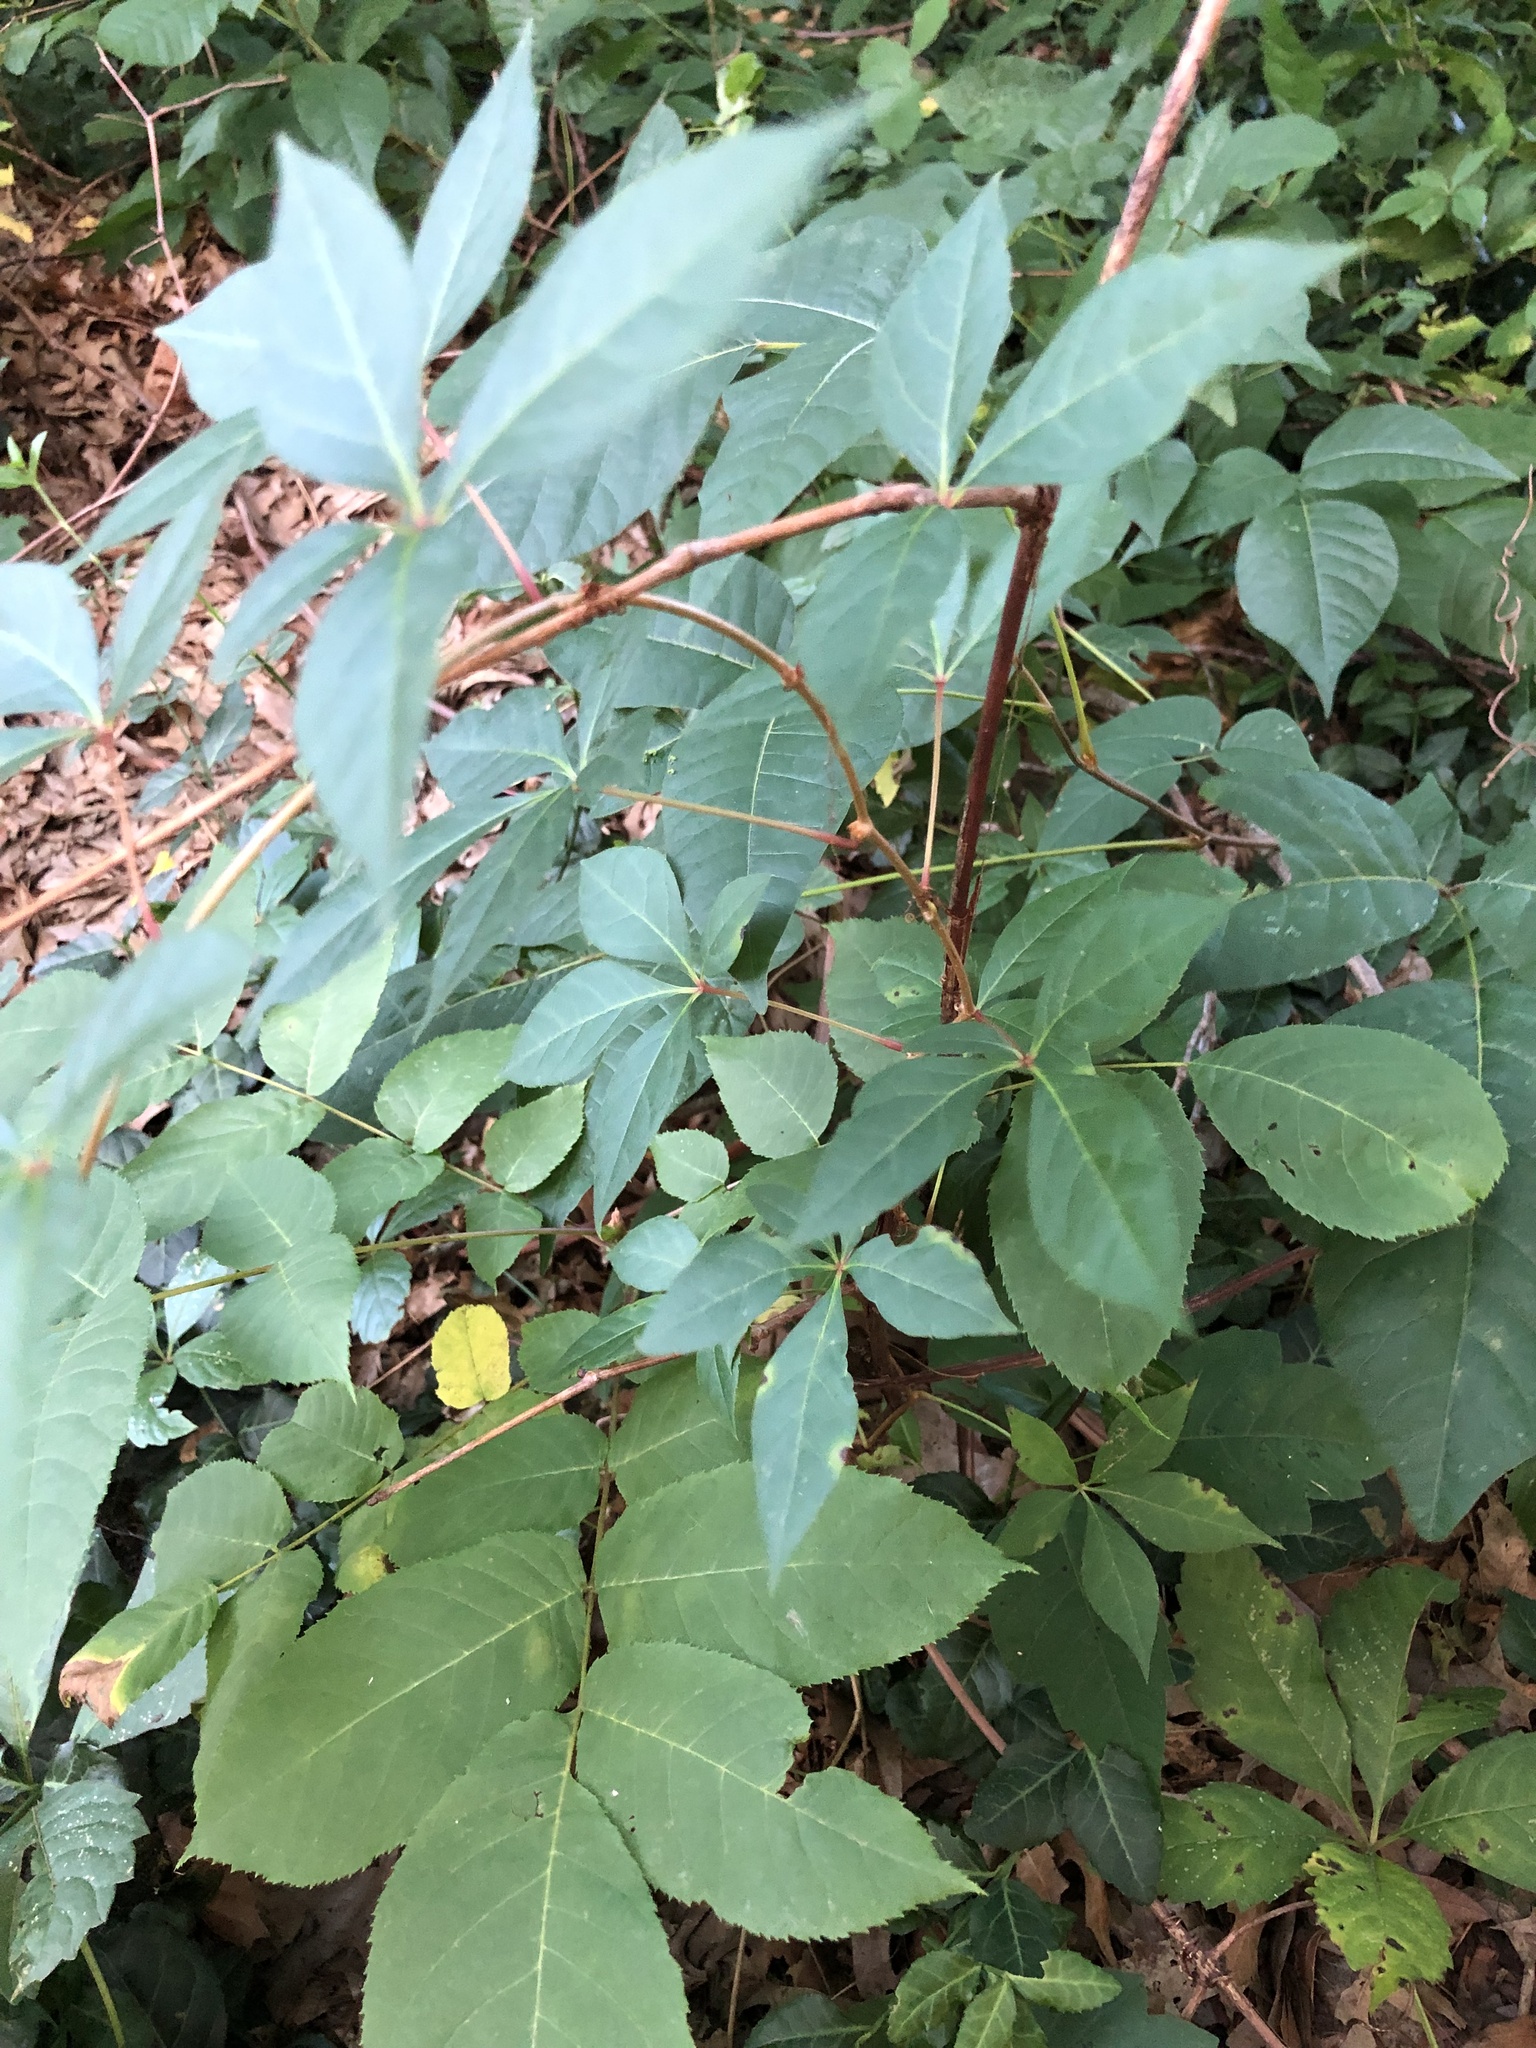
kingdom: Plantae
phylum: Tracheophyta
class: Magnoliopsida
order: Sapindales
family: Anacardiaceae
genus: Toxicodendron
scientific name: Toxicodendron radicans
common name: Poison ivy
